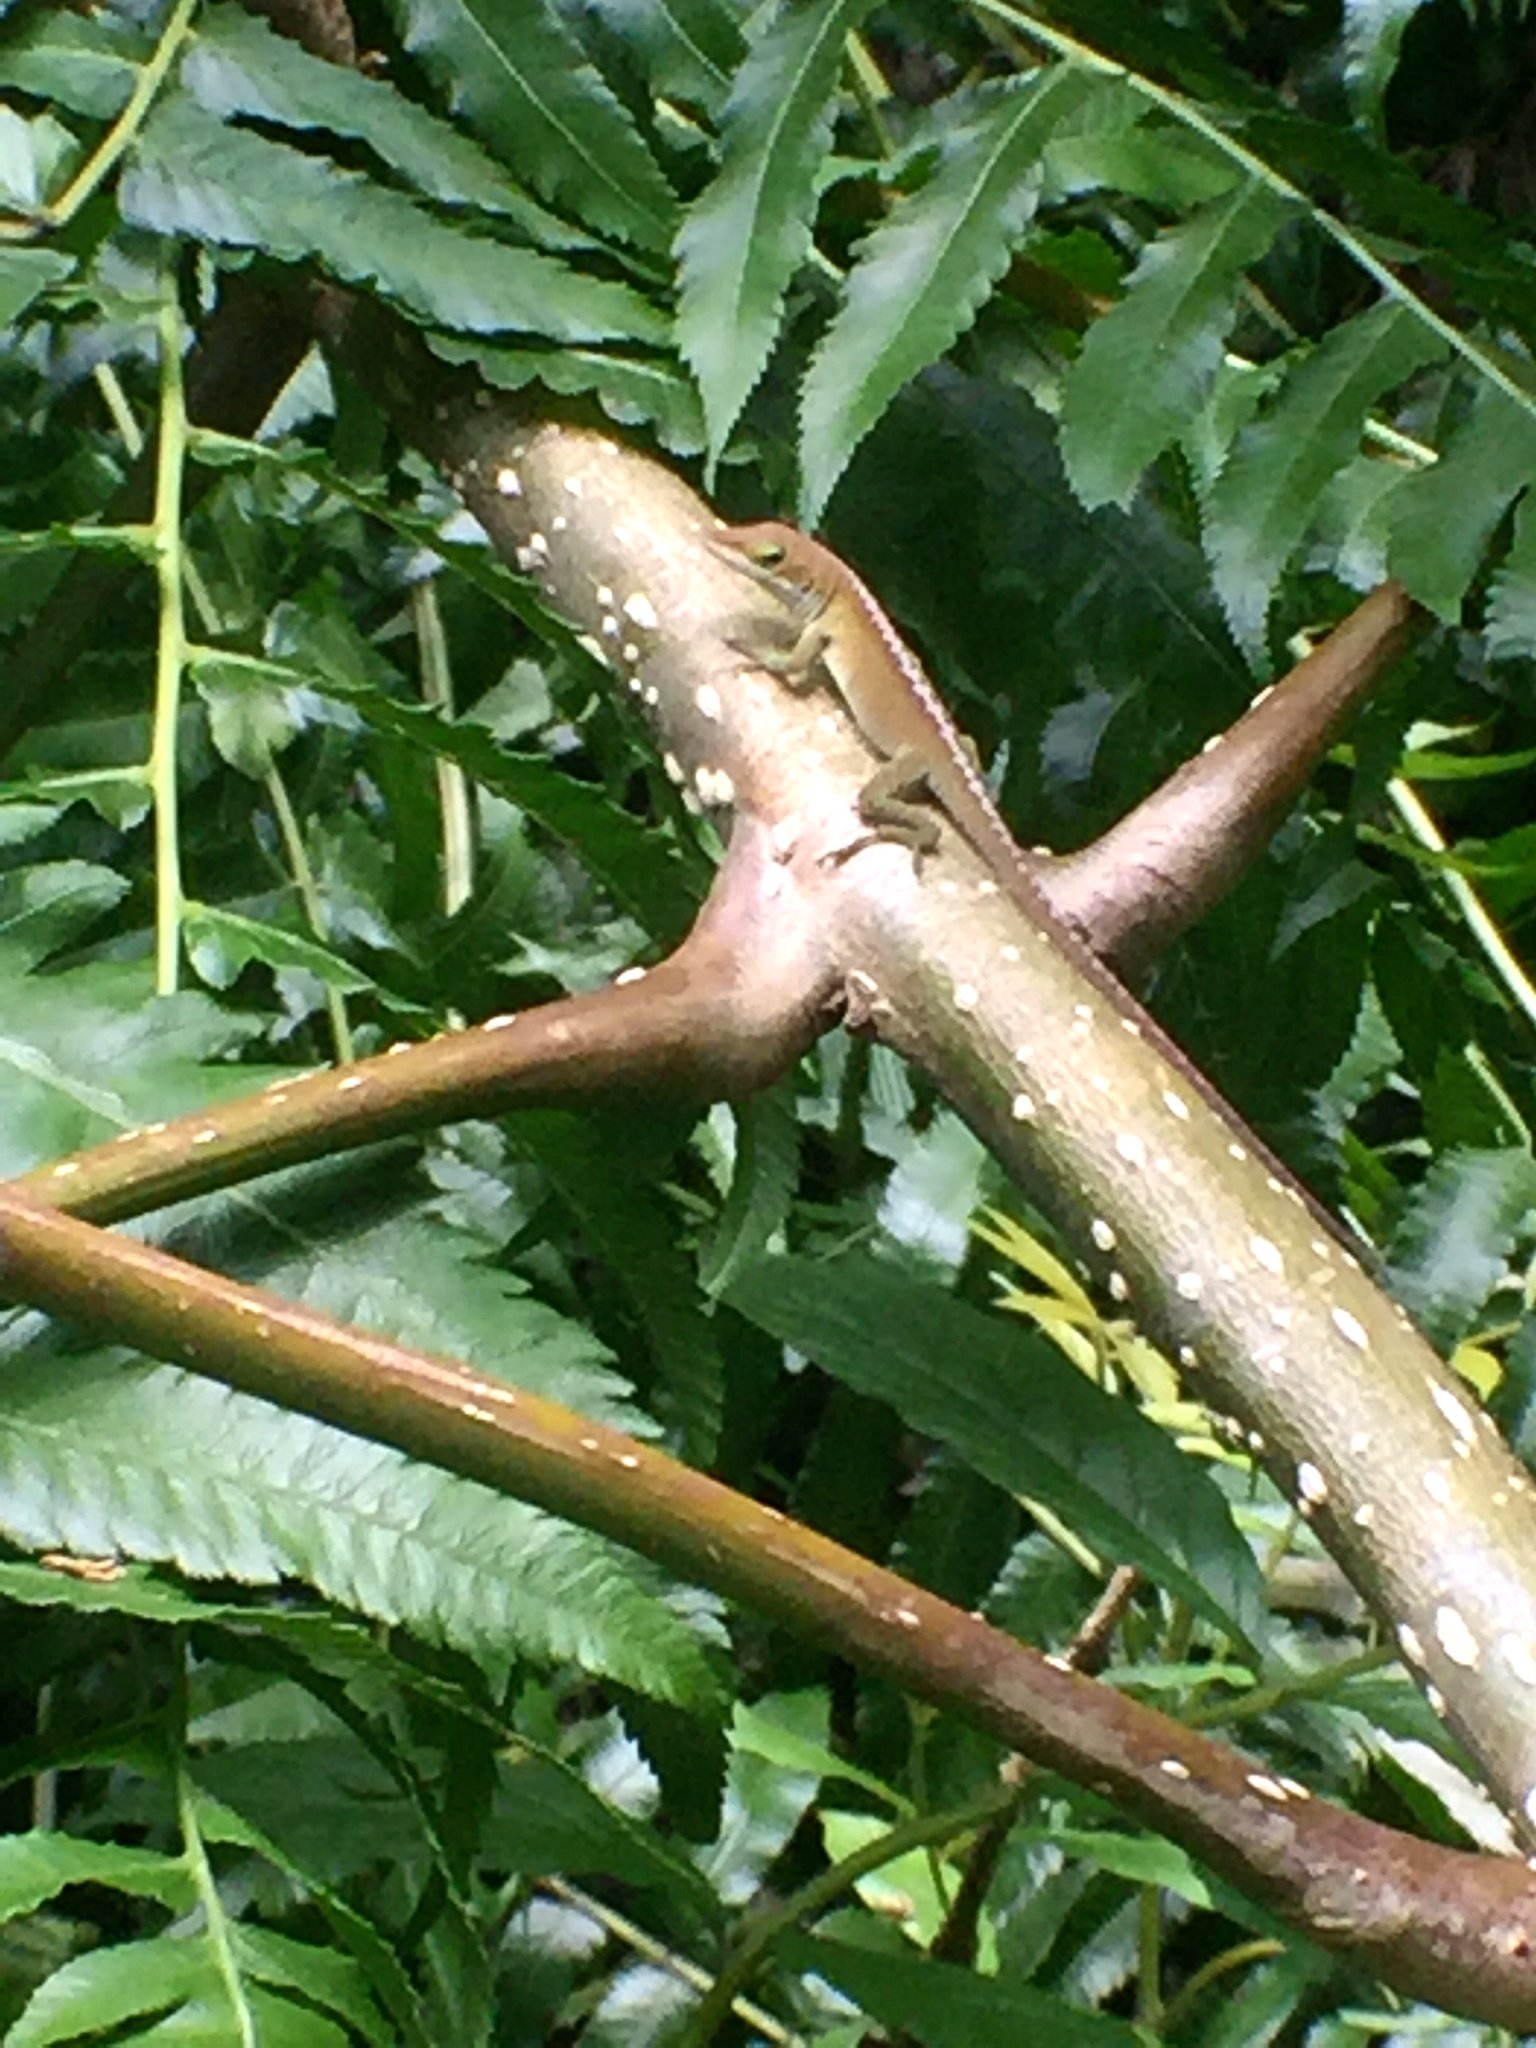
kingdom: Animalia
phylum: Chordata
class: Squamata
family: Dactyloidae
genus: Anolis
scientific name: Anolis carolinensis
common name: Green anole
